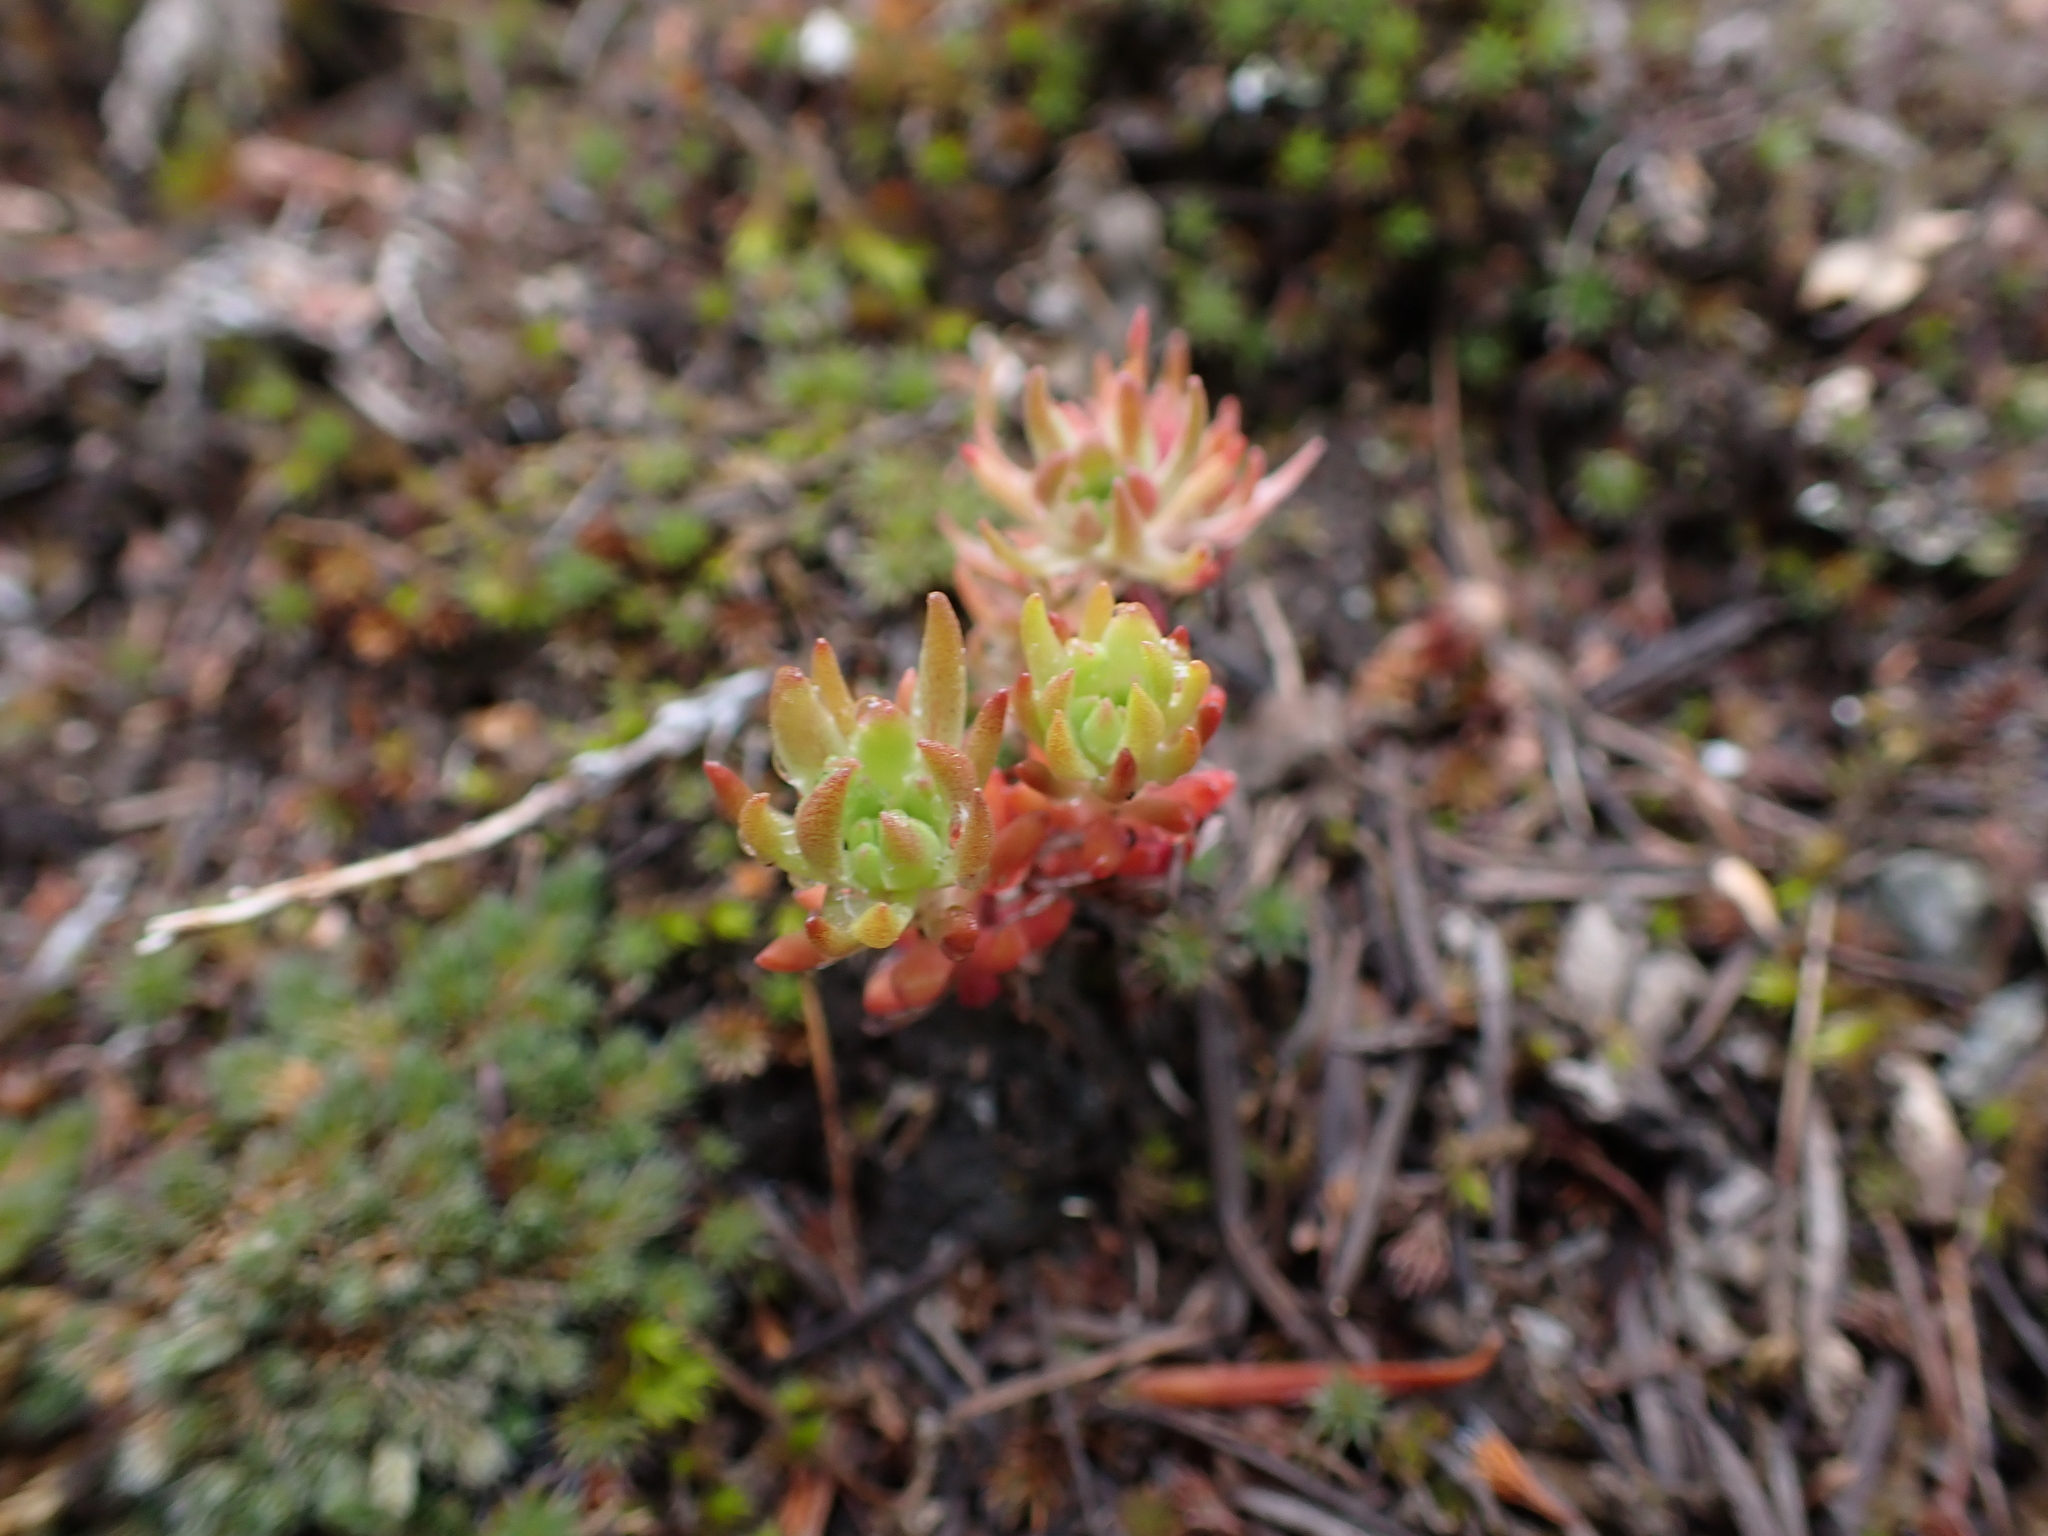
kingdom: Plantae
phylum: Tracheophyta
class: Magnoliopsida
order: Saxifragales
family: Crassulaceae
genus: Sedum
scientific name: Sedum stenopetalum
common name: Narrow-petaled stonecrop
